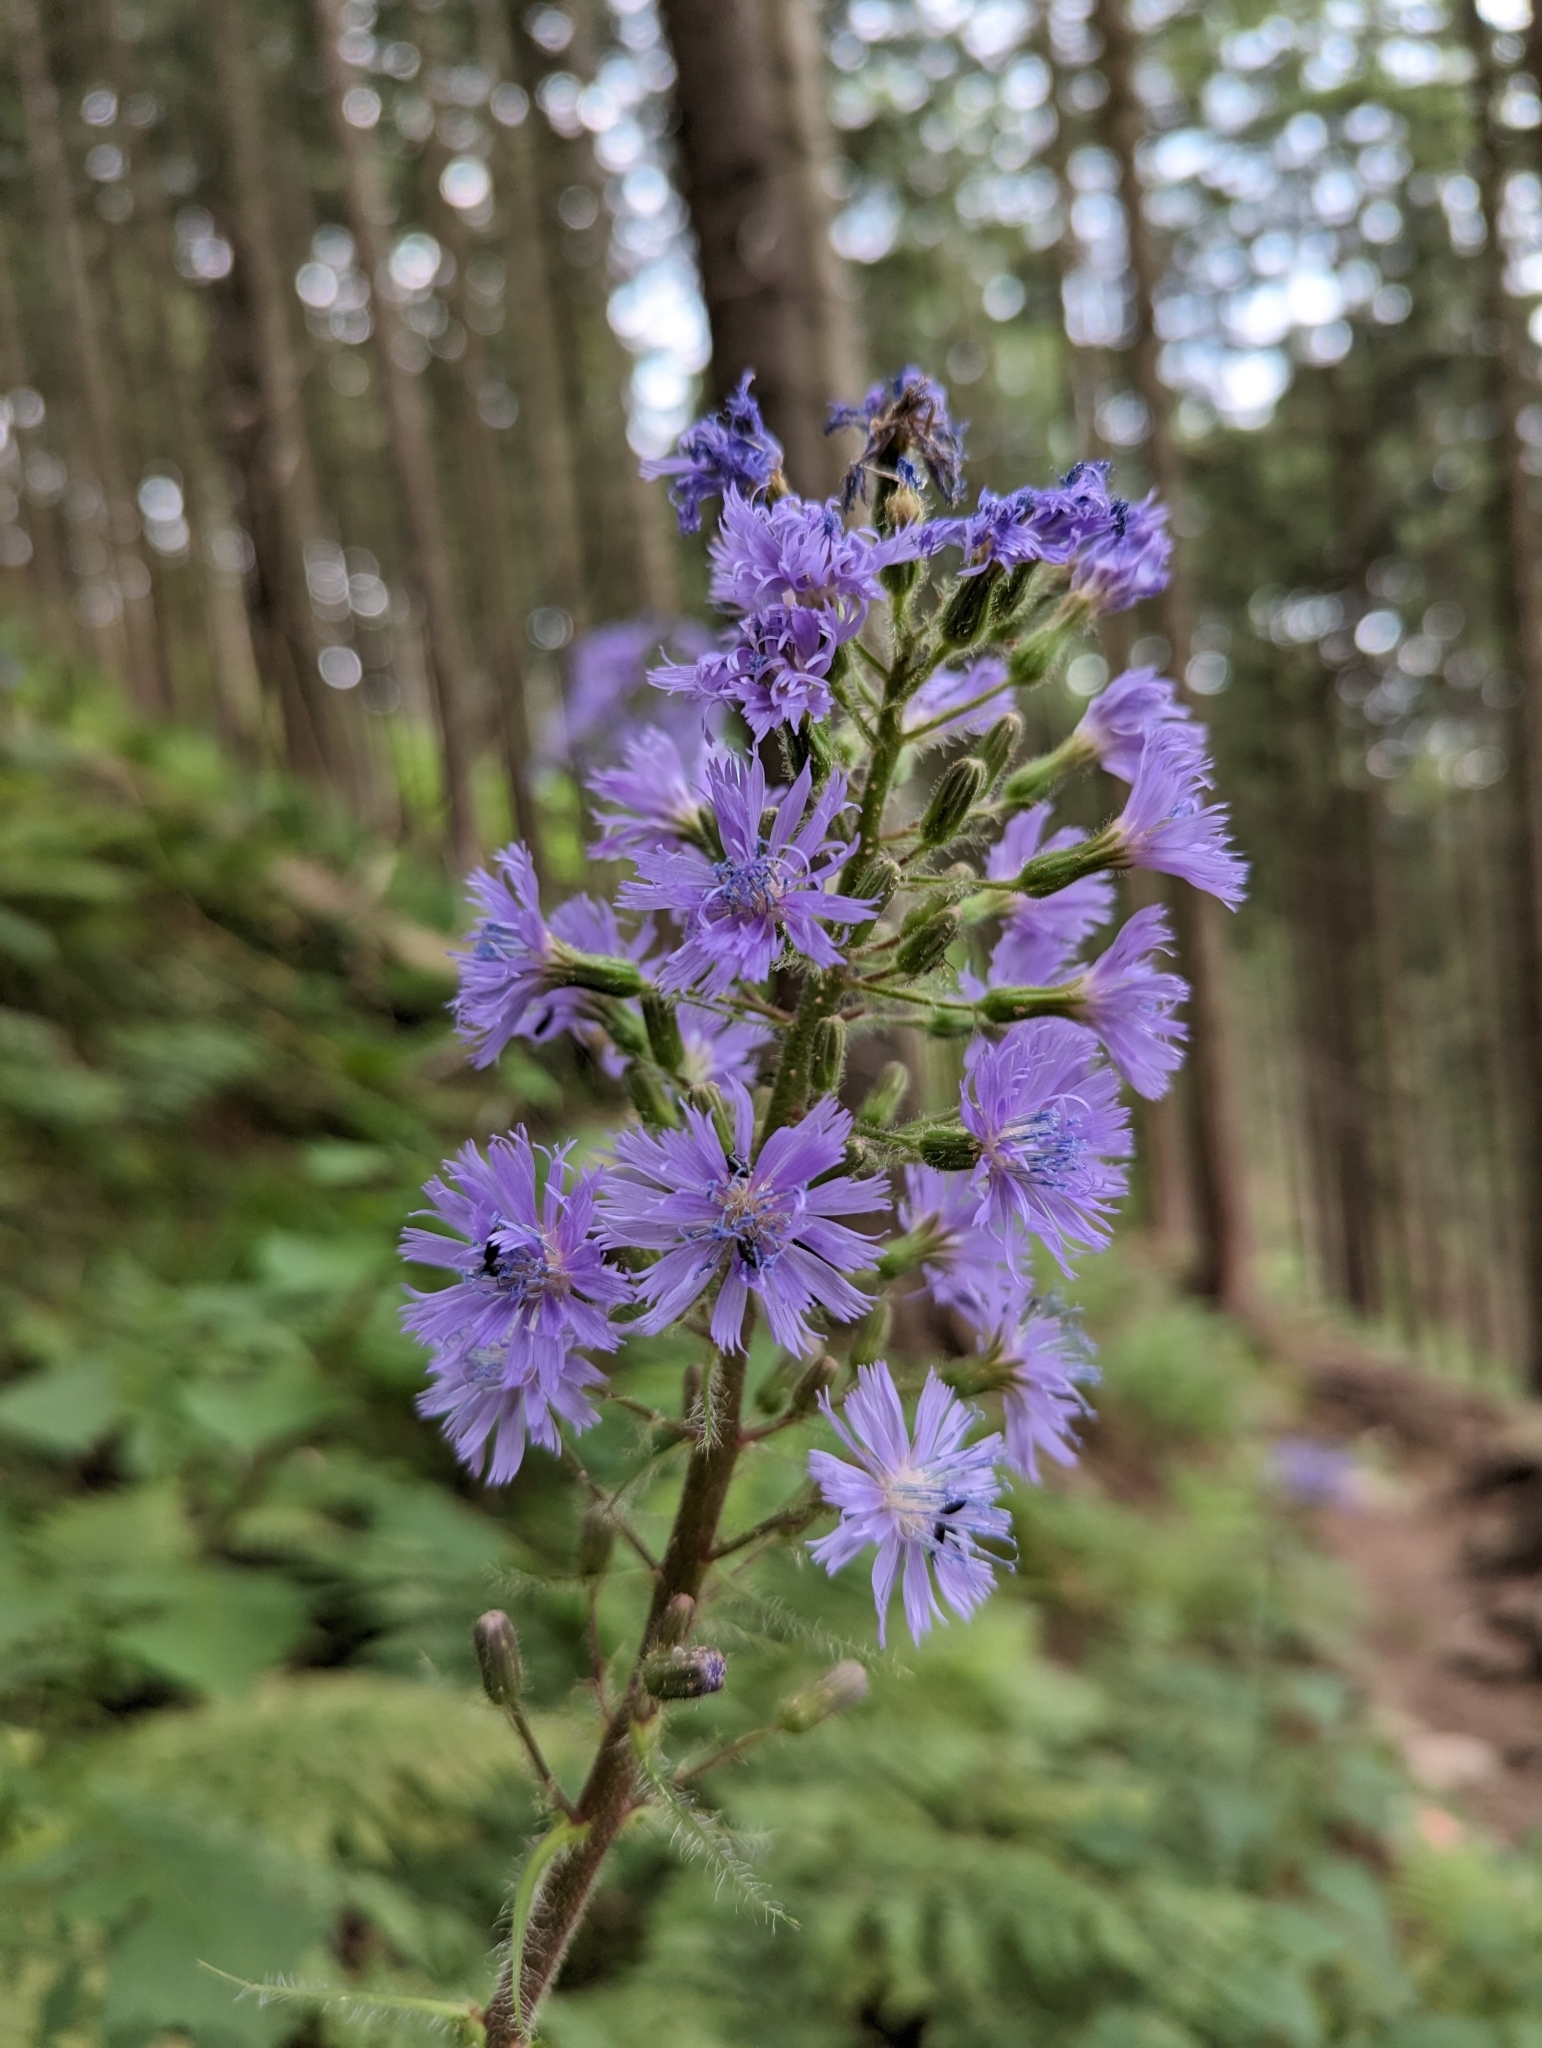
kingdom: Plantae
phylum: Tracheophyta
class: Magnoliopsida
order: Asterales
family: Asteraceae
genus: Cicerbita
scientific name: Cicerbita alpina
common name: Alpine blue-sow-thistle
